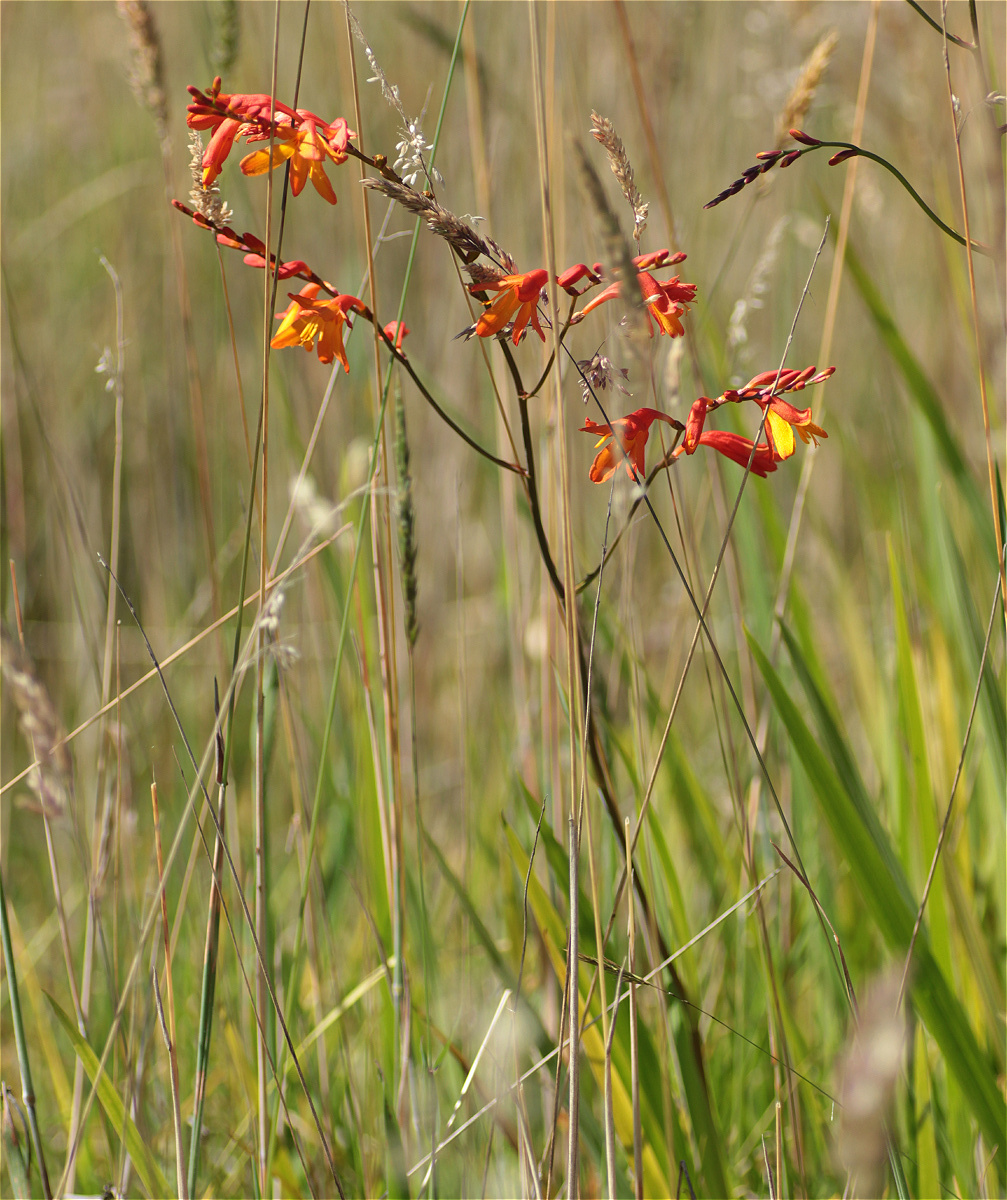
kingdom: Plantae
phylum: Tracheophyta
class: Liliopsida
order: Asparagales
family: Iridaceae
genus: Crocosmia
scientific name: Crocosmia crocosmiiflora
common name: Montbretia
